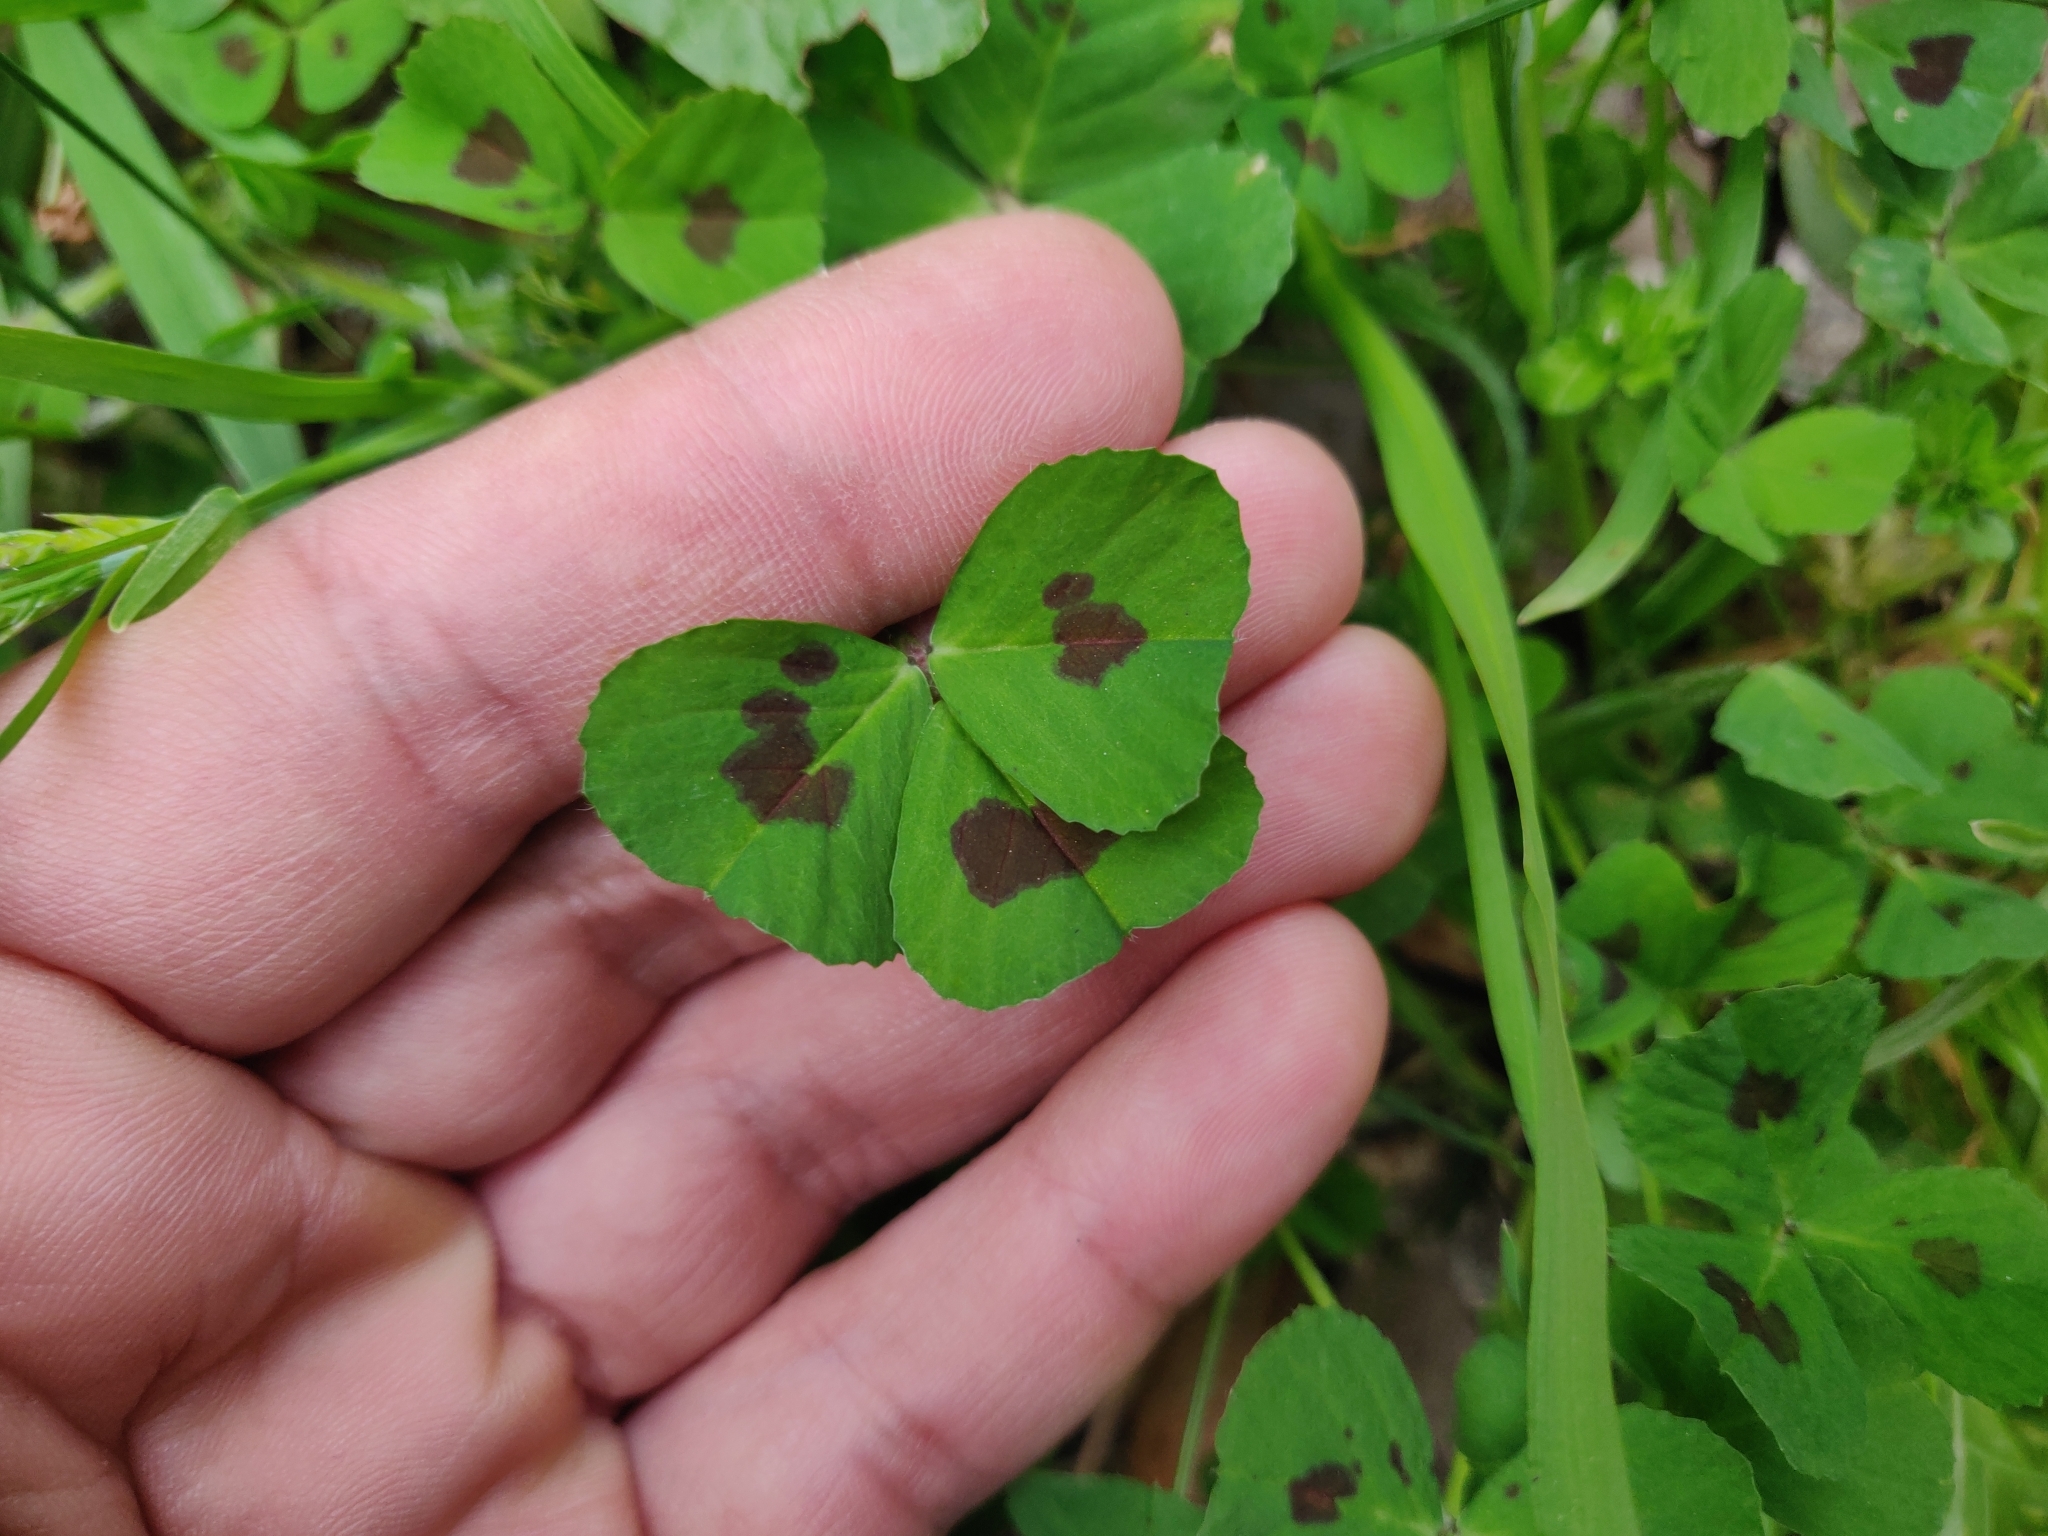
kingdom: Plantae
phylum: Tracheophyta
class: Magnoliopsida
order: Fabales
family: Fabaceae
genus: Medicago
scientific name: Medicago arabica
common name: Spotted medick
